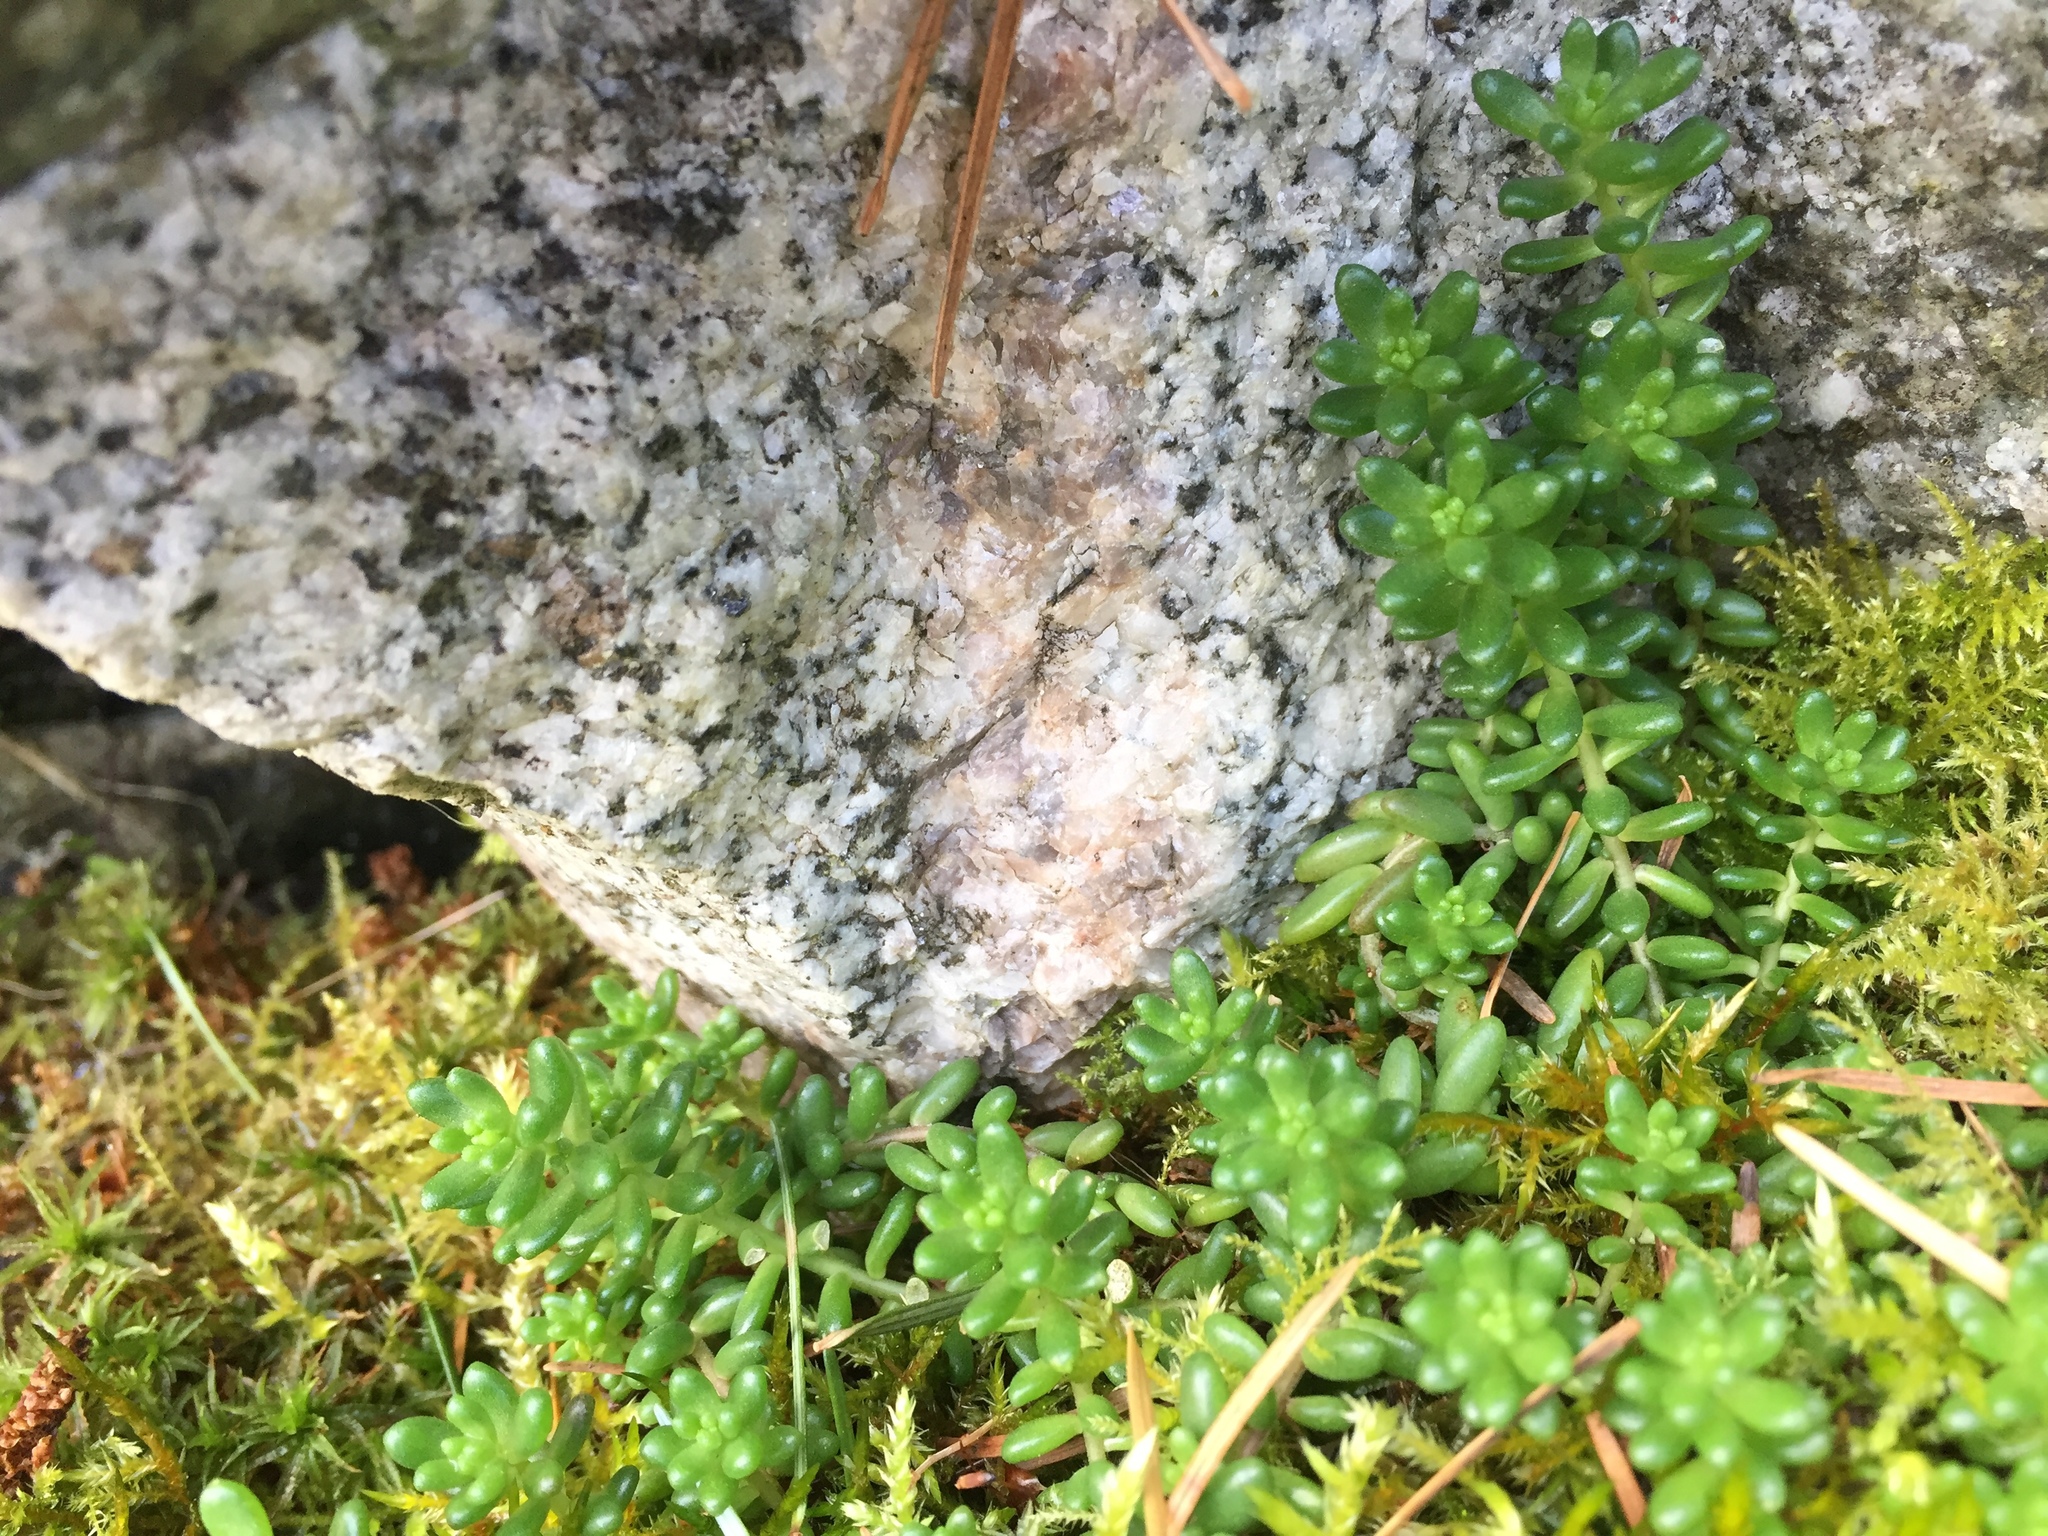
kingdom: Plantae
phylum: Tracheophyta
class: Magnoliopsida
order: Saxifragales
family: Crassulaceae
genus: Sedum
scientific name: Sedum album
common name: White stonecrop
